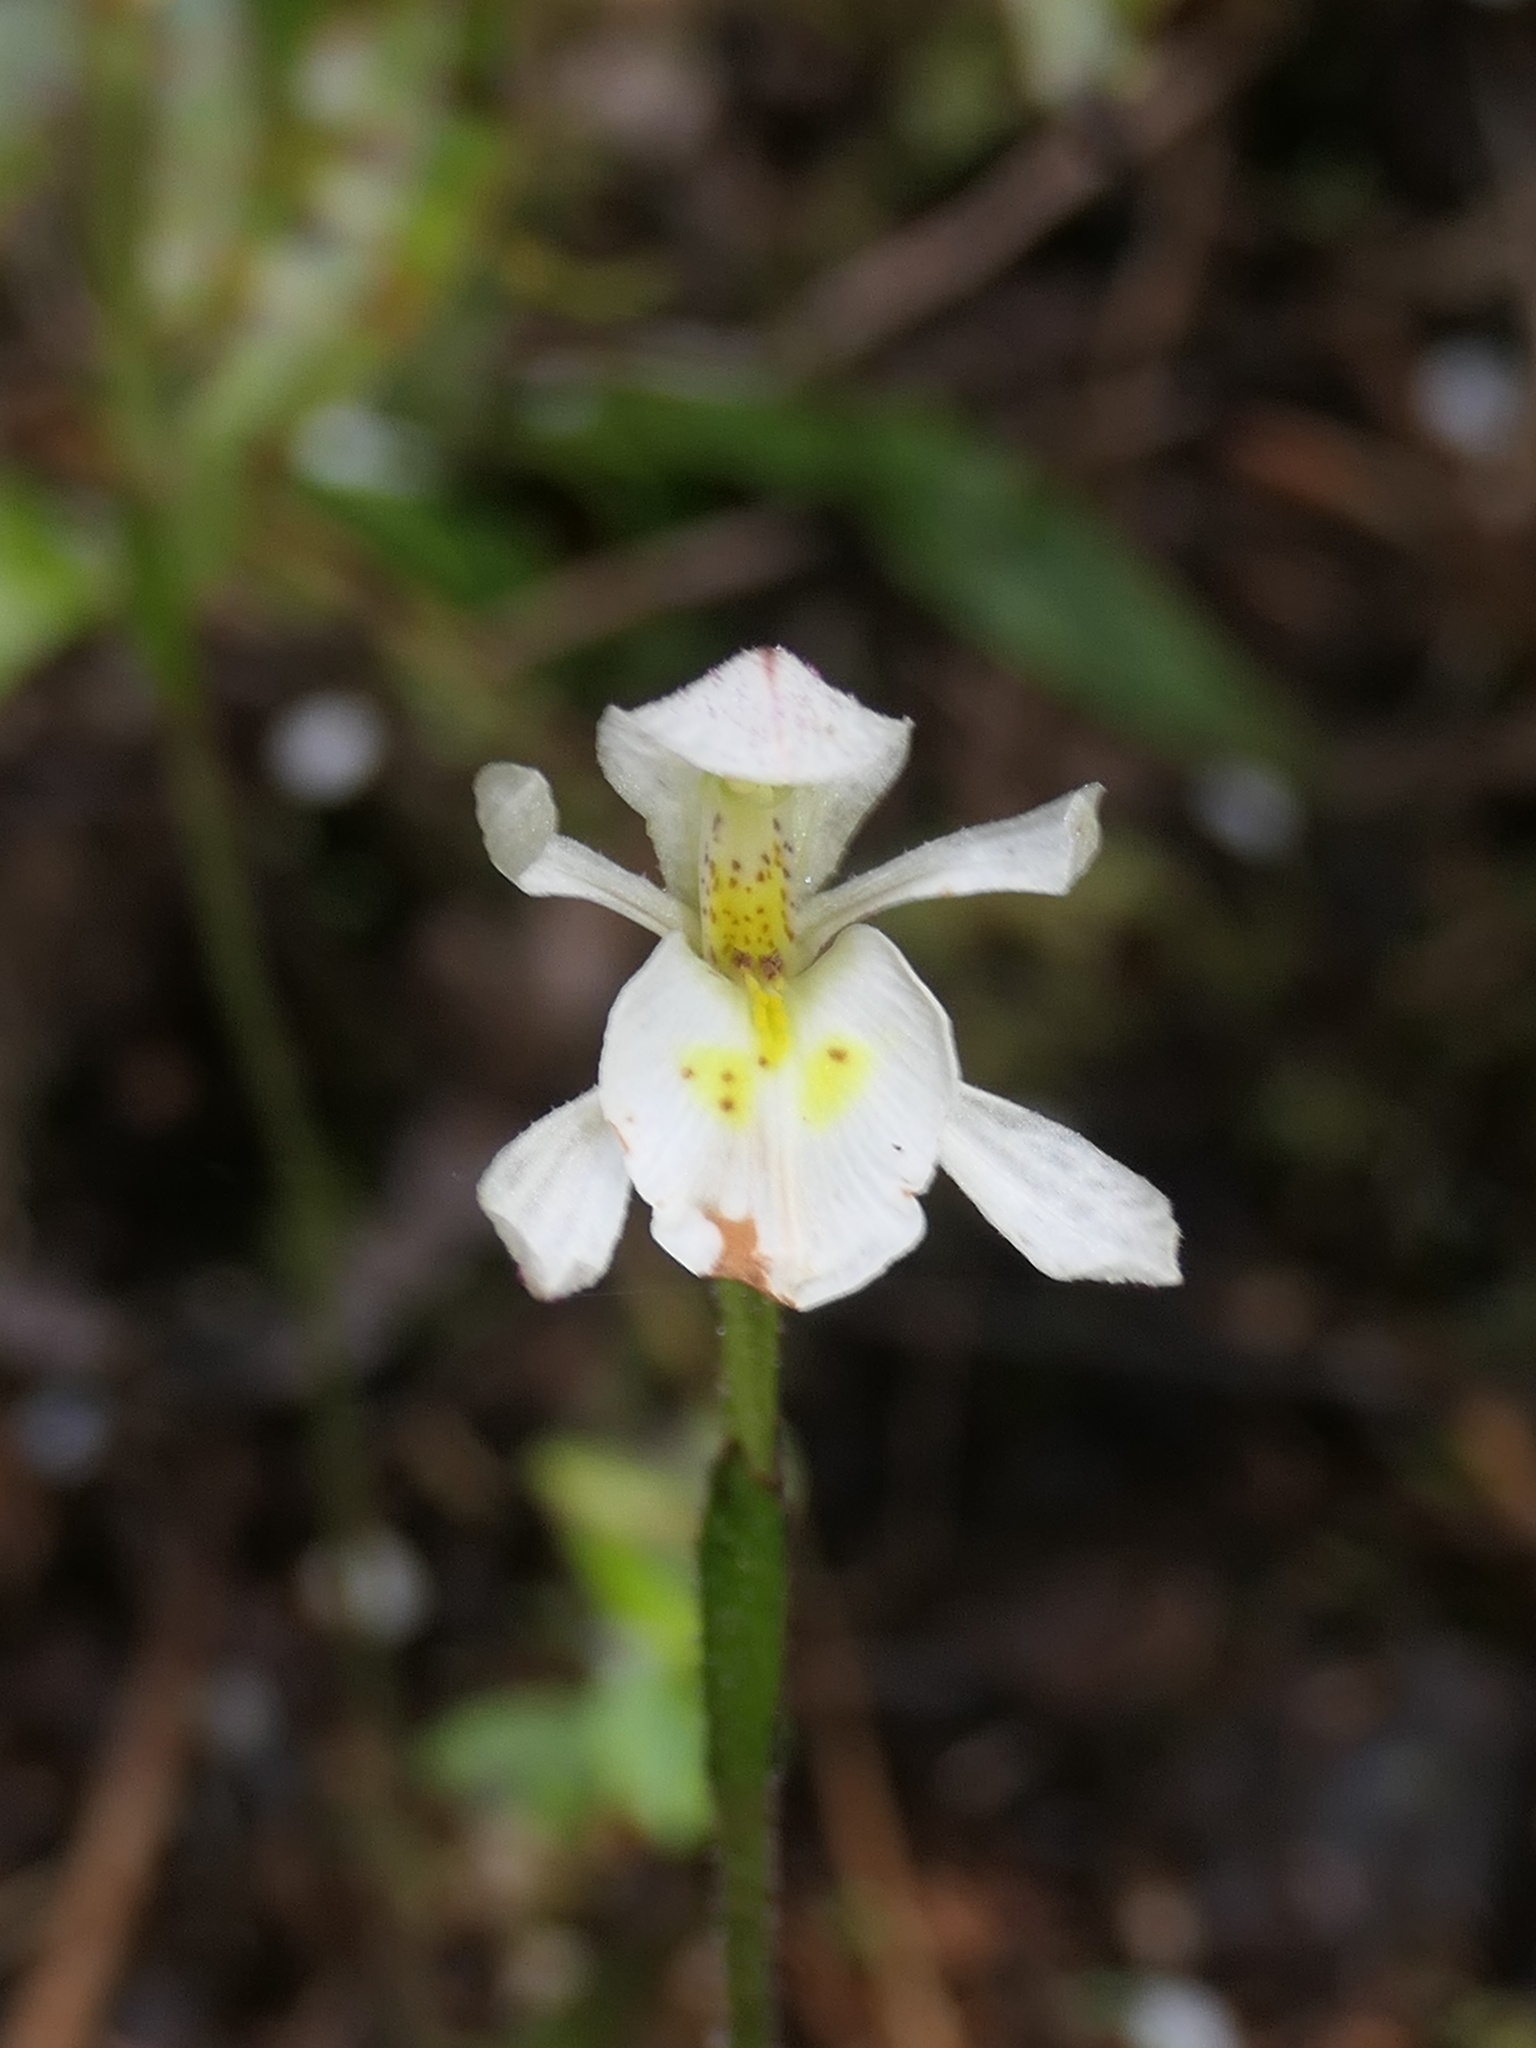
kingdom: Plantae
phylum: Tracheophyta
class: Liliopsida
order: Asparagales
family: Orchidaceae
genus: Aporostylis
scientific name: Aporostylis bifolia
